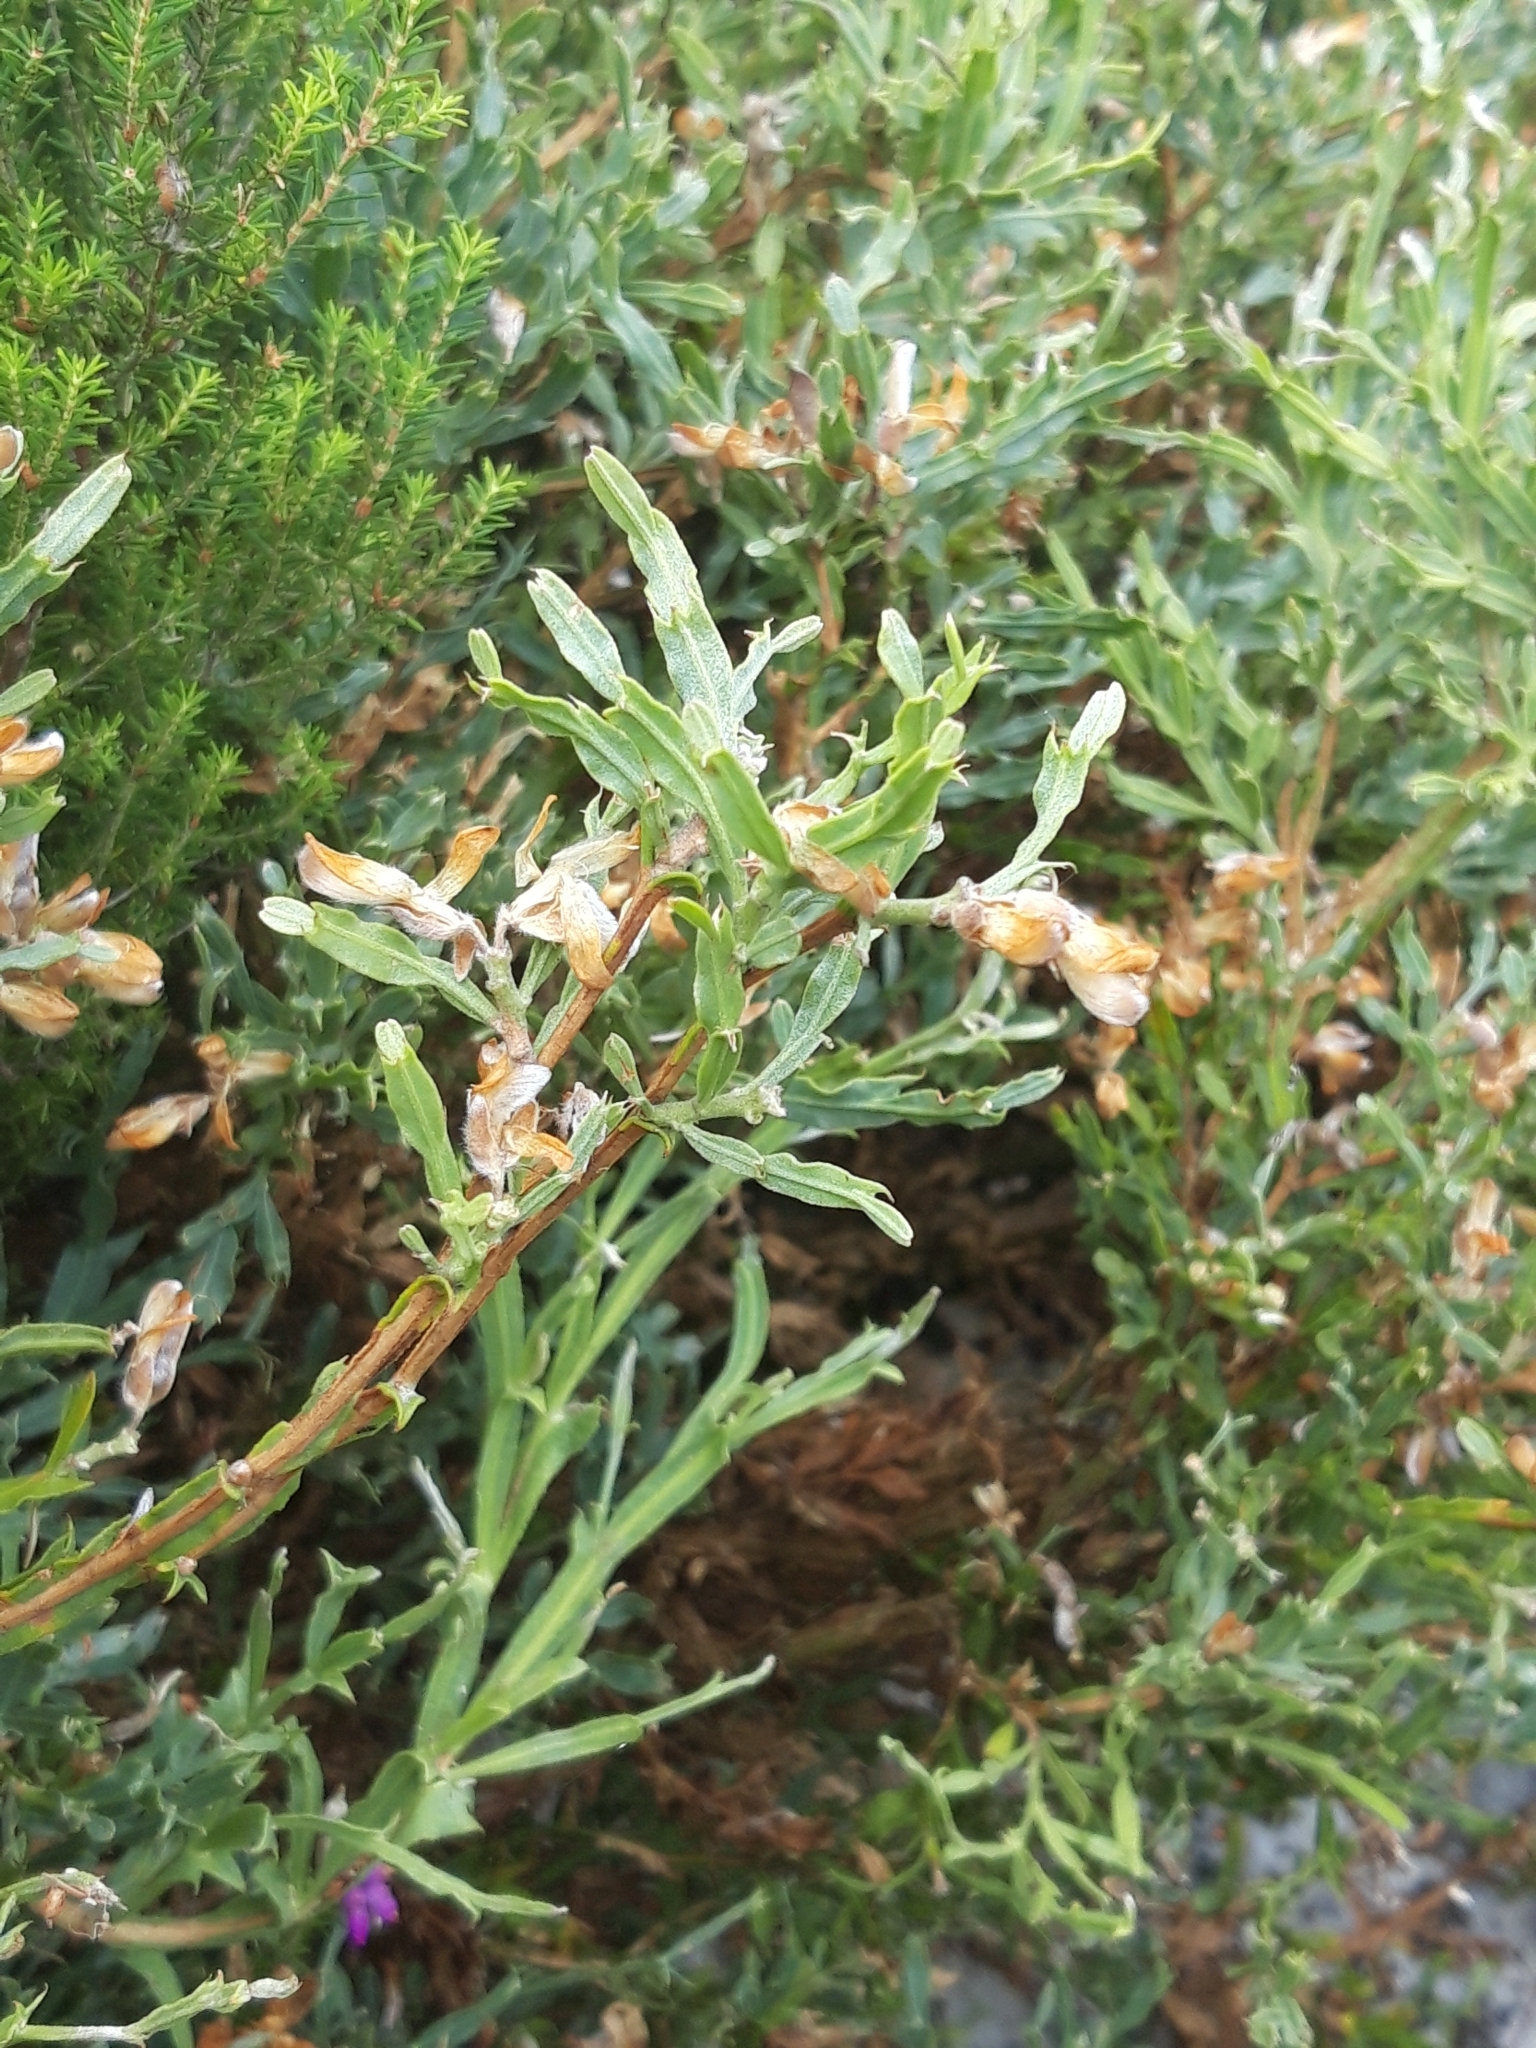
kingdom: Plantae
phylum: Tracheophyta
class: Magnoliopsida
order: Fabales
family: Fabaceae
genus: Genista
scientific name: Genista tridentata
